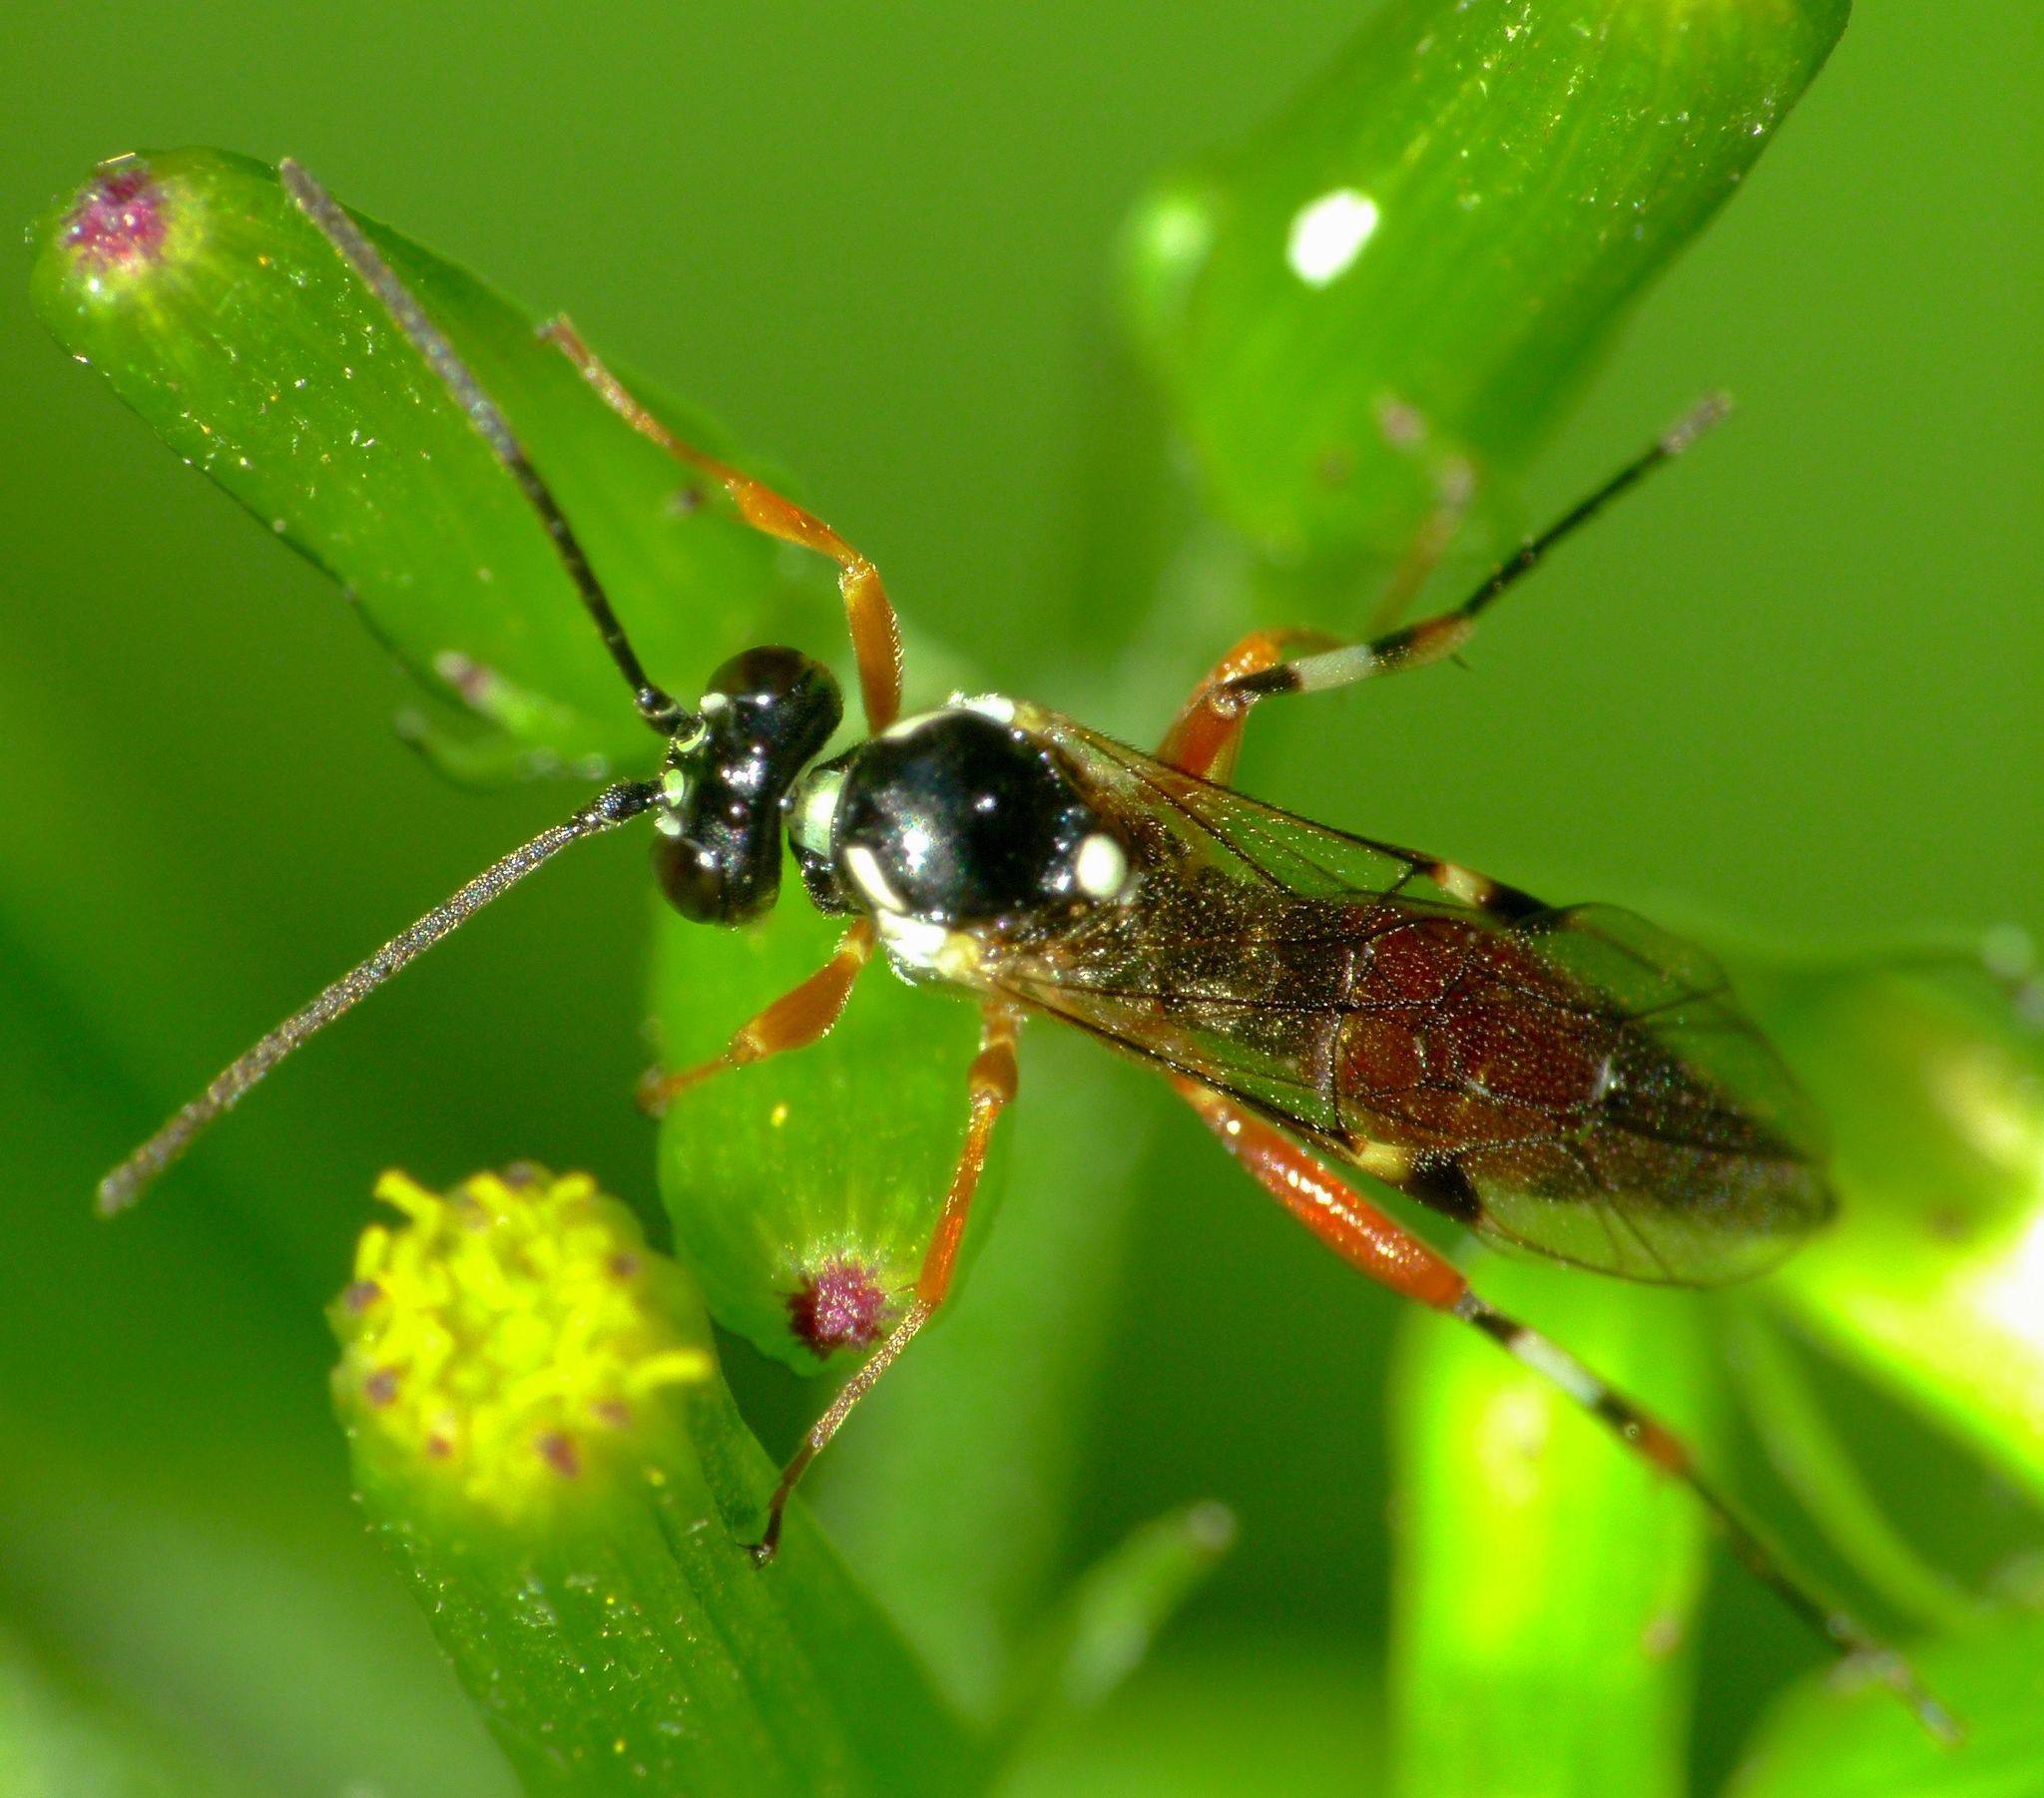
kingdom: Animalia
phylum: Arthropoda
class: Insecta
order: Hymenoptera
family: Ichneumonidae
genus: Diplazon
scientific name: Diplazon laetatorius
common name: Parasitoid wasp
